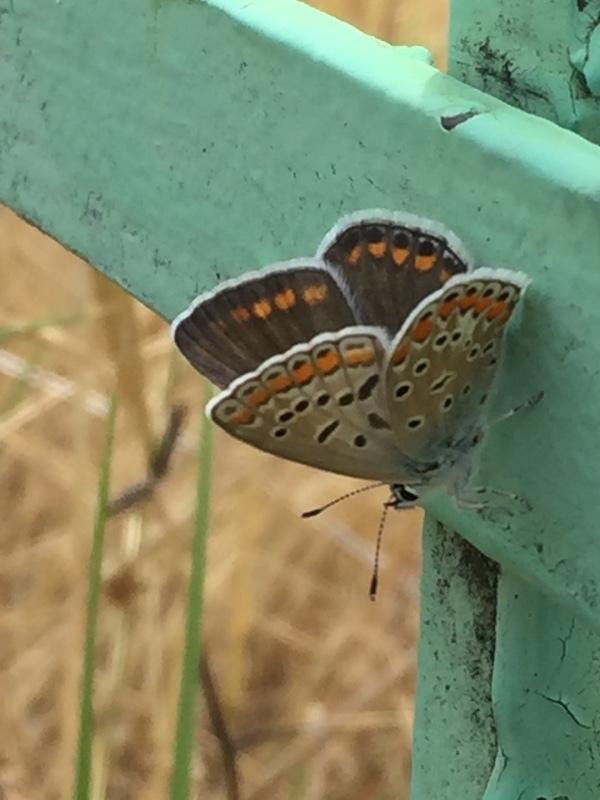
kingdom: Animalia
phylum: Arthropoda
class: Insecta
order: Lepidoptera
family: Lycaenidae
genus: Polyommatus
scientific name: Polyommatus icarus
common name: Common blue
